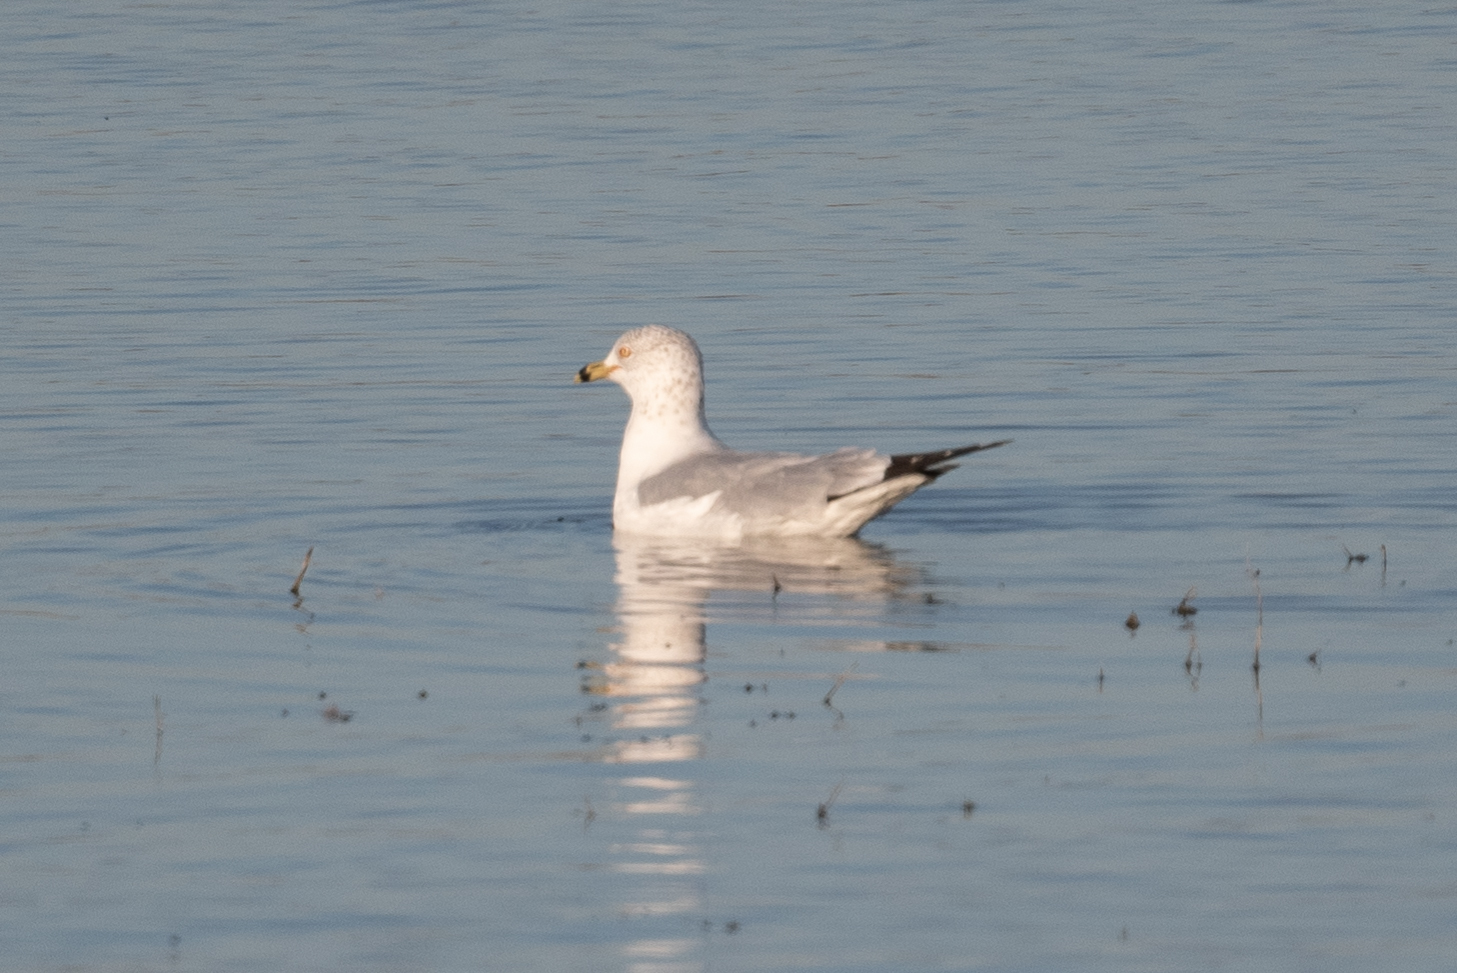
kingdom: Animalia
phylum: Chordata
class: Aves
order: Charadriiformes
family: Laridae
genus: Larus
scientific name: Larus delawarensis
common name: Ring-billed gull
